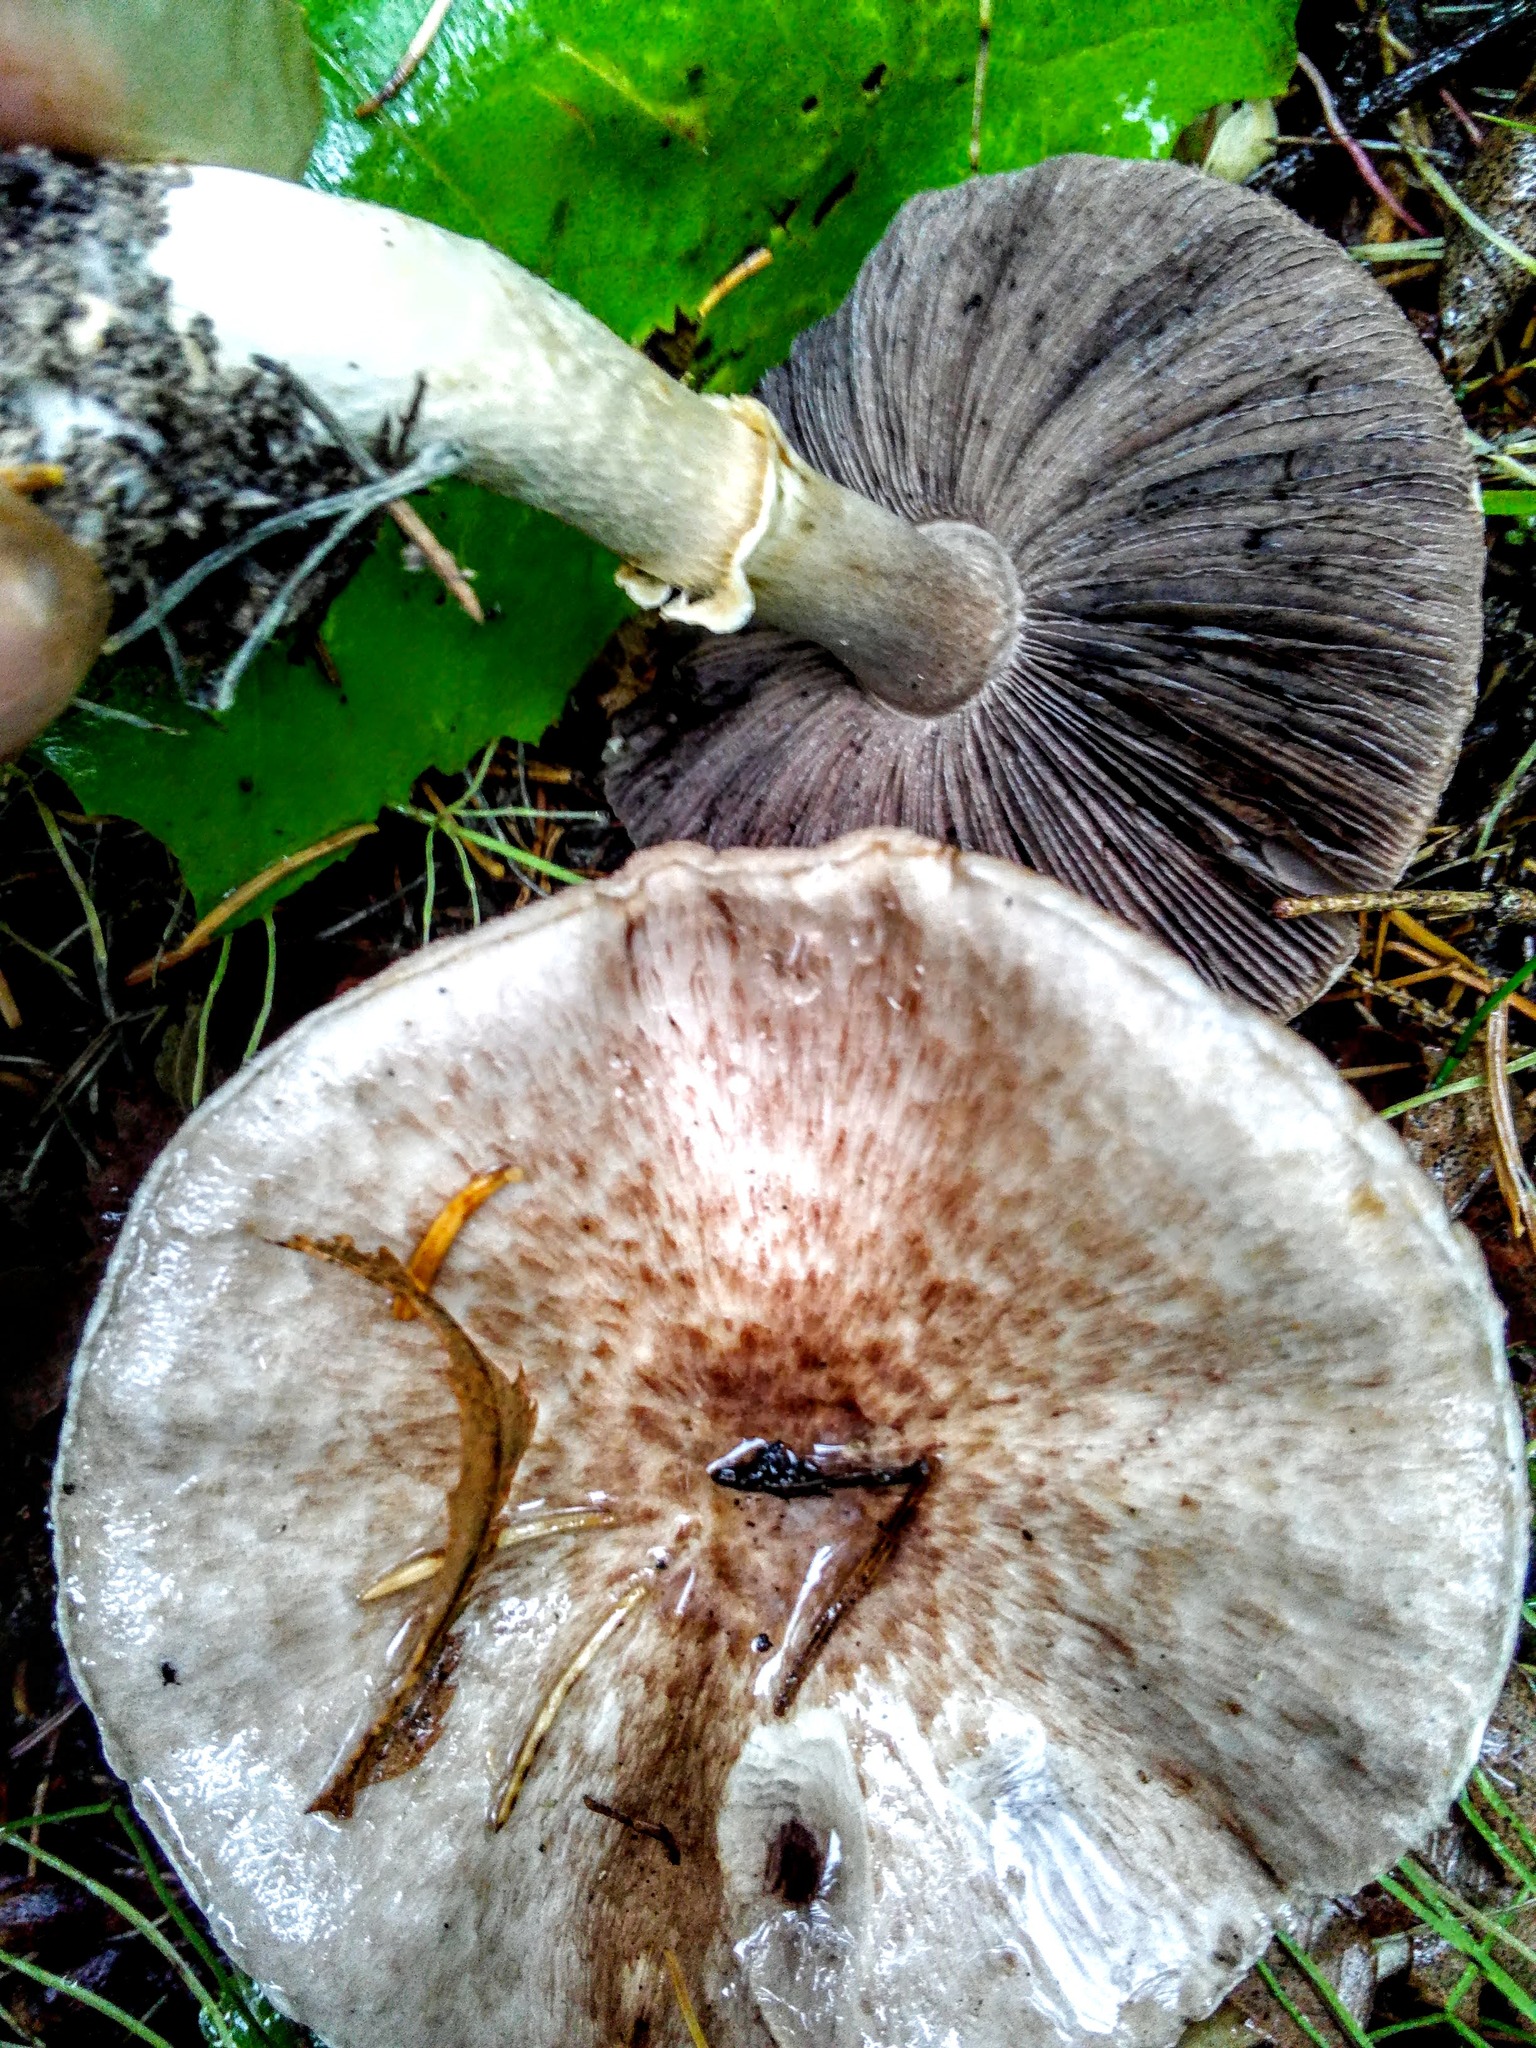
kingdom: Fungi
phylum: Basidiomycota
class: Agaricomycetes
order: Agaricales
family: Agaricaceae
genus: Agaricus
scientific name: Agaricus sylvaticus
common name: Blushing wood mushroom
